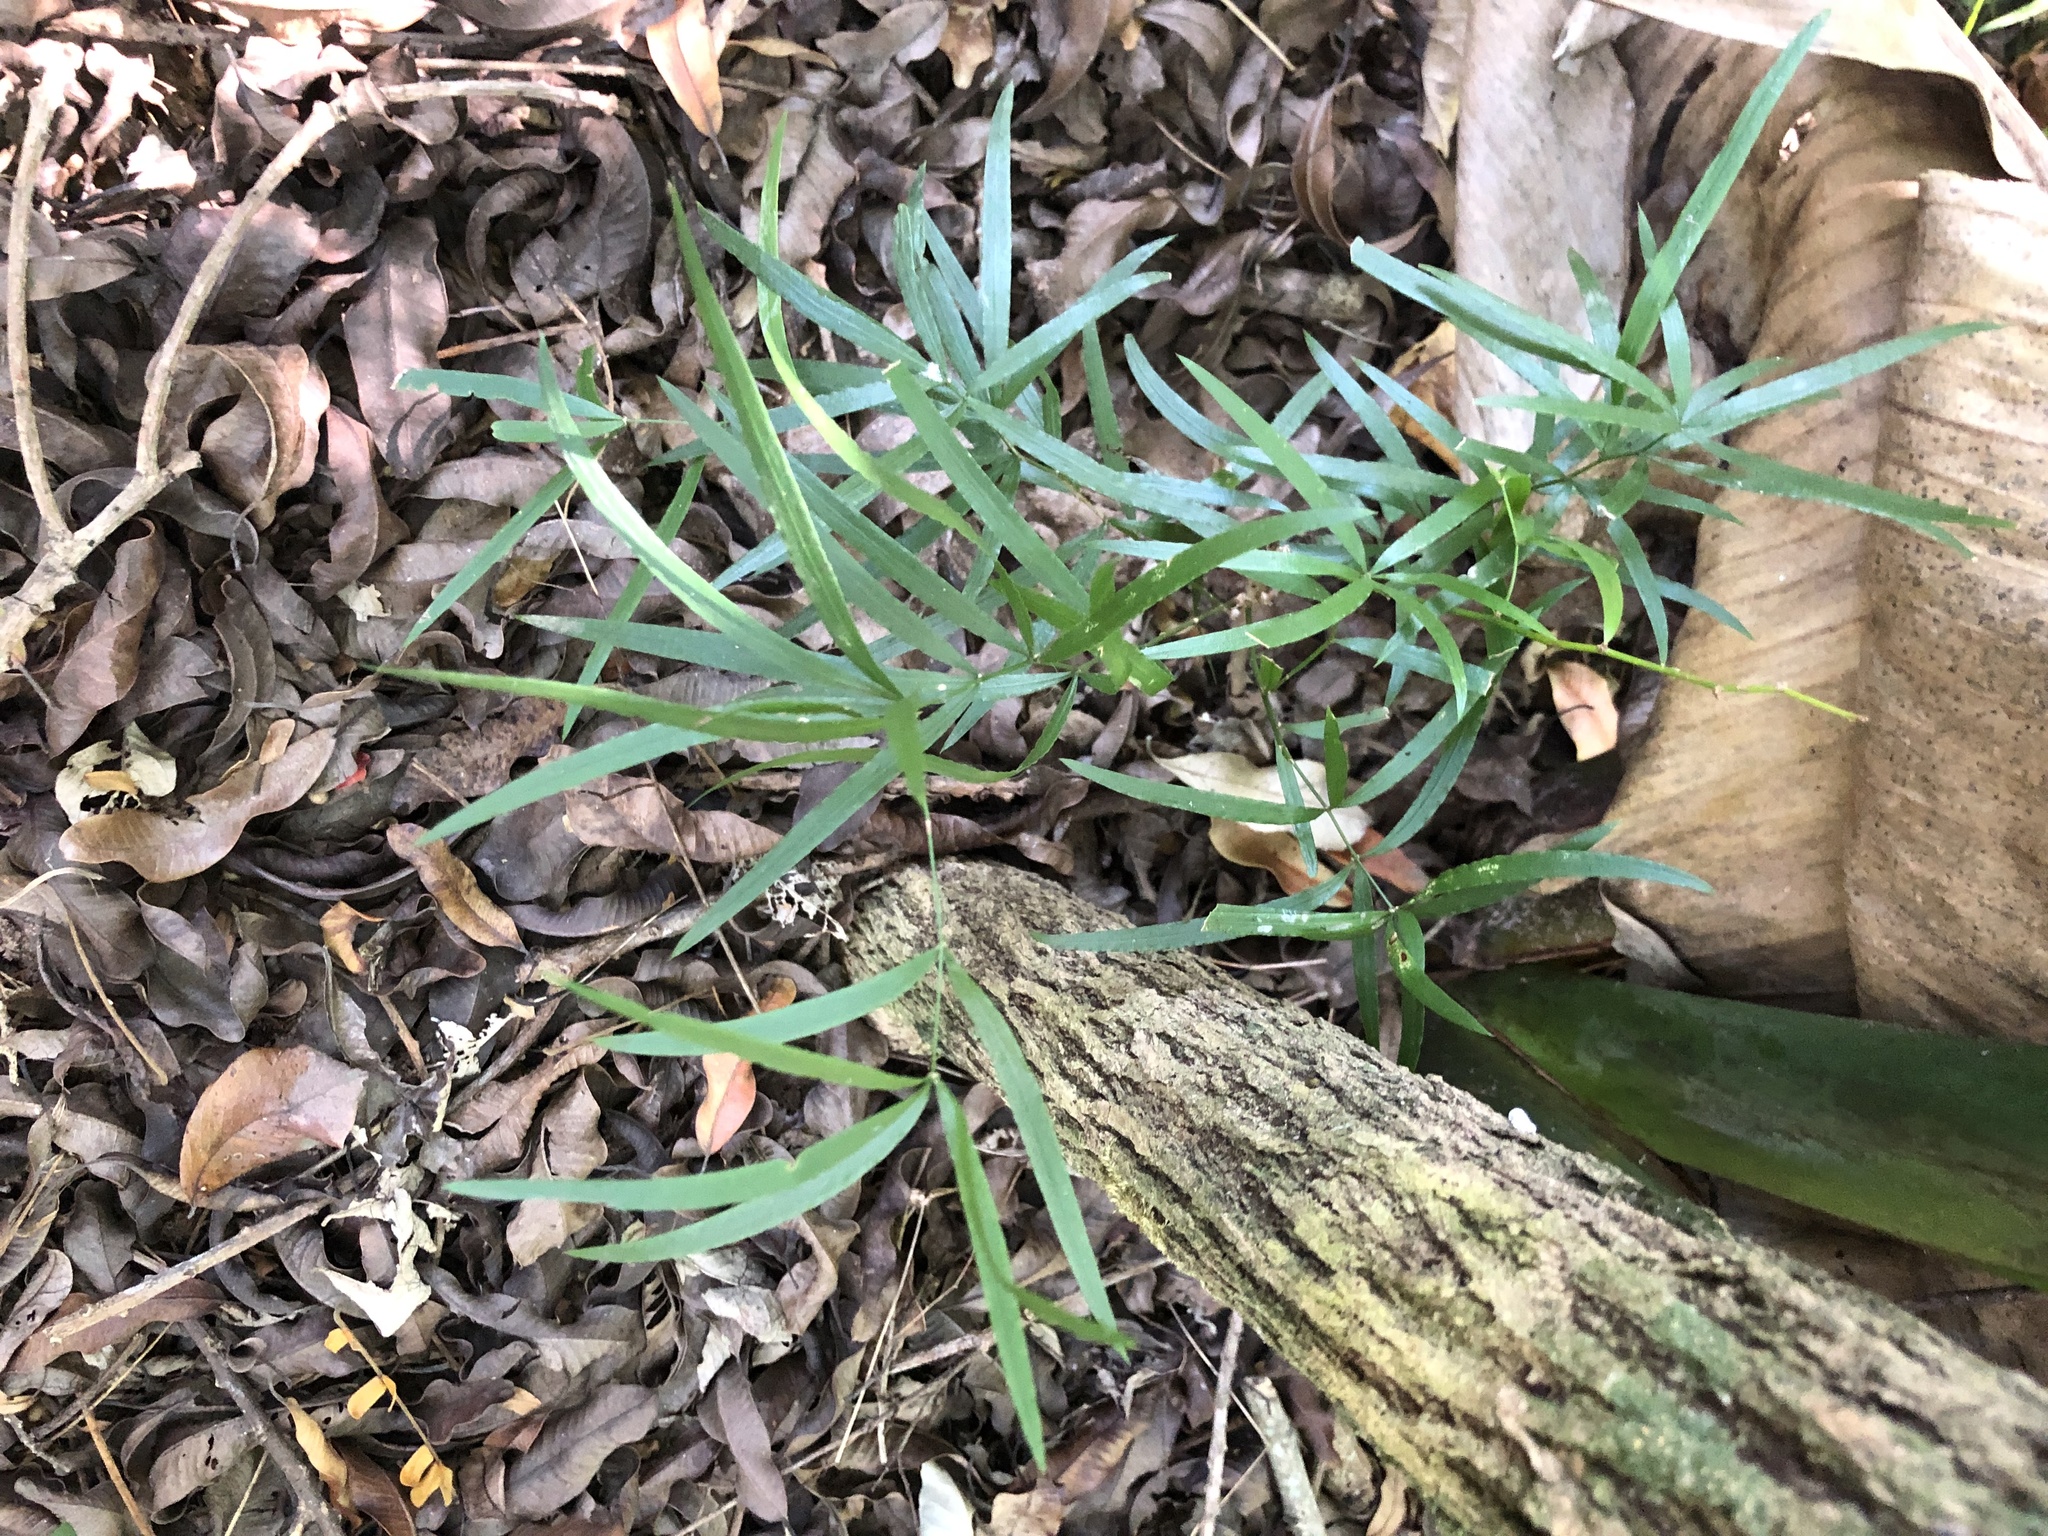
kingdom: Plantae
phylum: Tracheophyta
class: Liliopsida
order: Asparagales
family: Asparagaceae
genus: Asparagus
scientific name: Asparagus falcatus
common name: Asparagus
